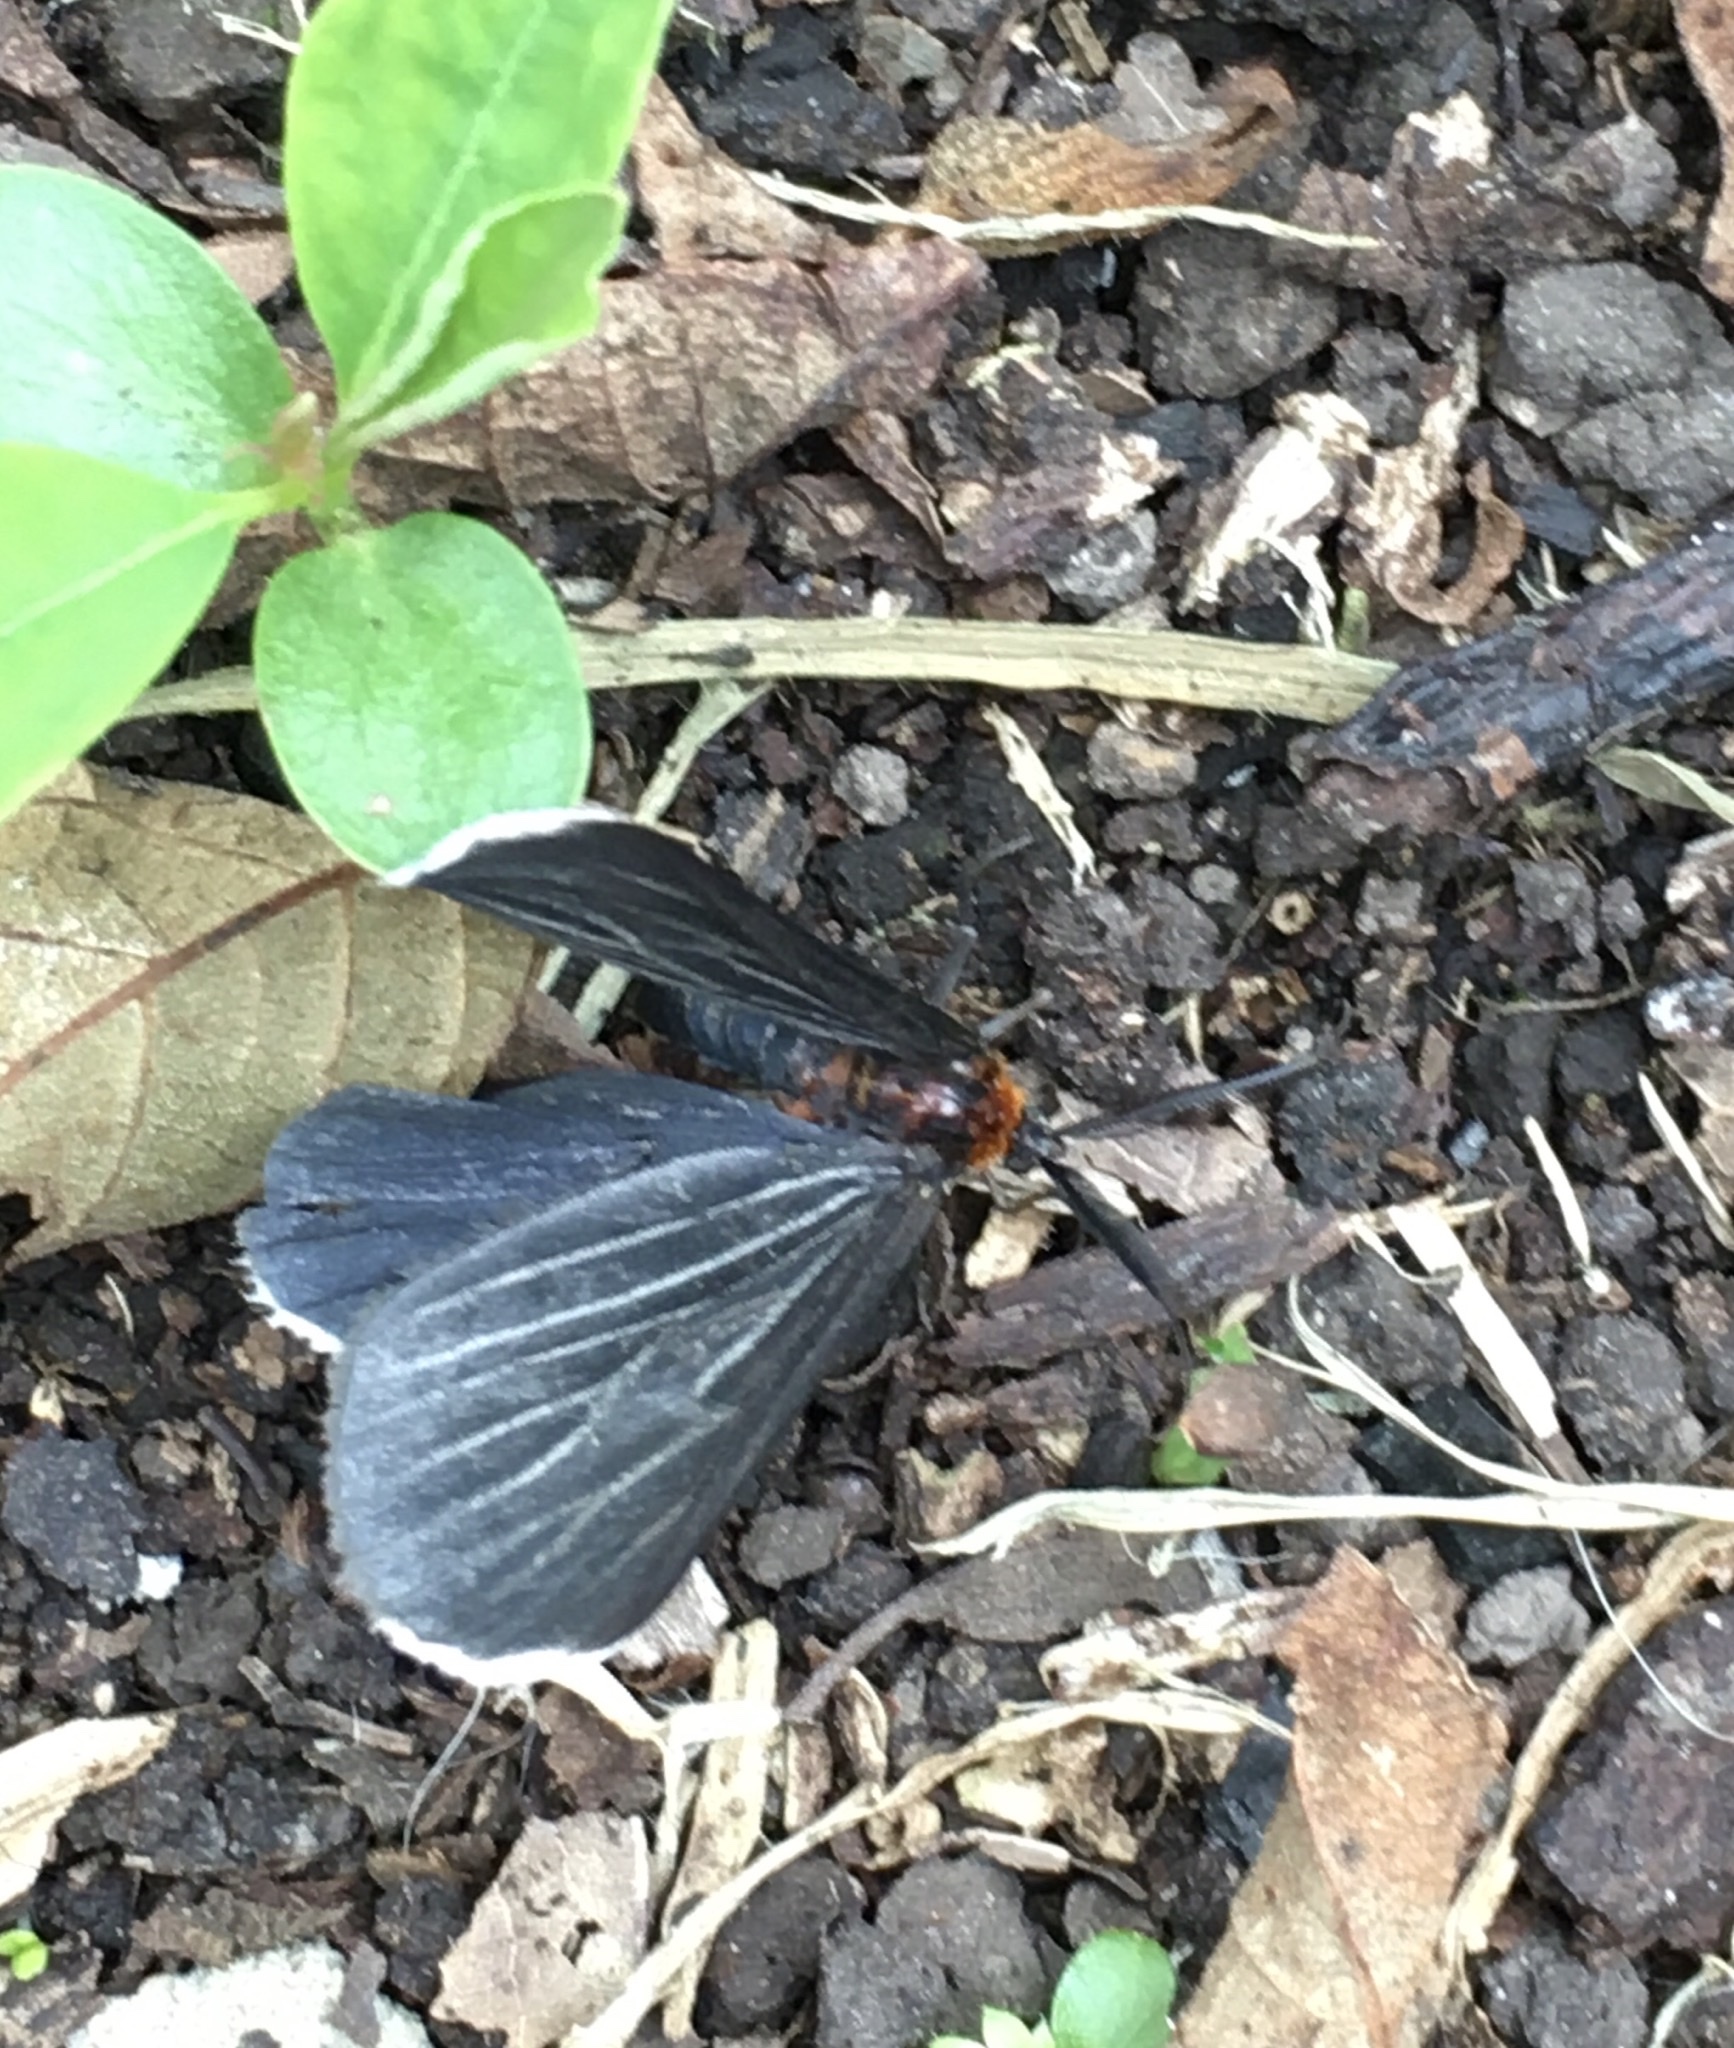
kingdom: Animalia
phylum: Arthropoda
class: Insecta
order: Lepidoptera
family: Geometridae
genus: Melanchroia
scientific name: Melanchroia chephise
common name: White-tipped black
